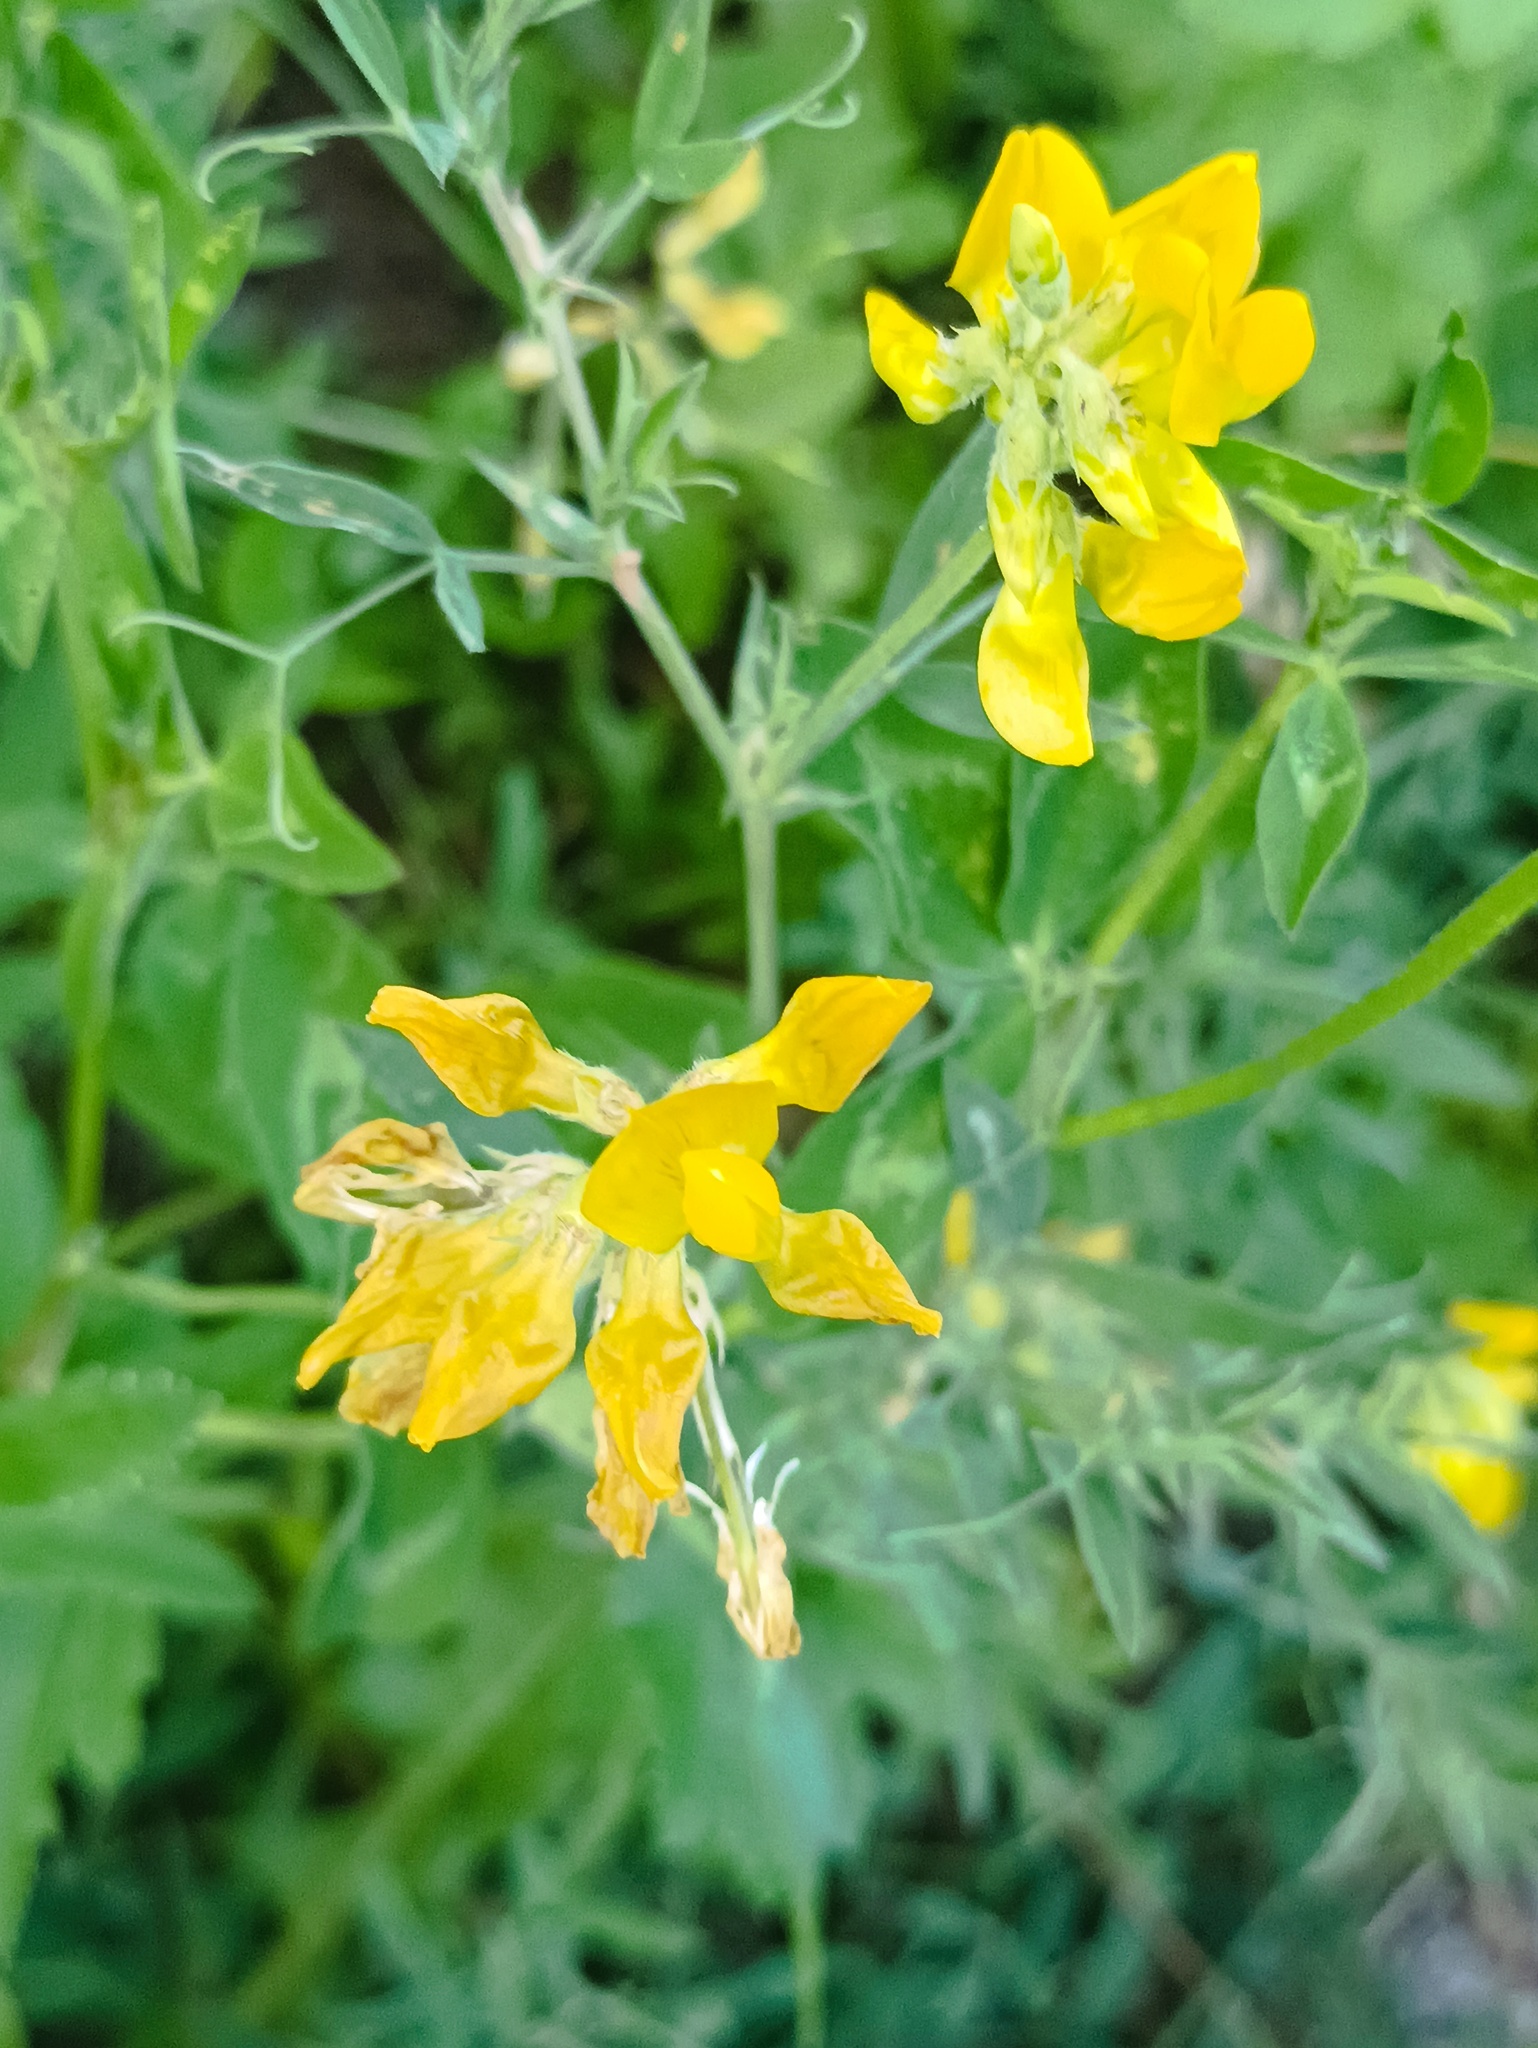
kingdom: Plantae
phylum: Tracheophyta
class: Magnoliopsida
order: Fabales
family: Fabaceae
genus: Lathyrus
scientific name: Lathyrus pratensis
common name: Meadow vetchling
